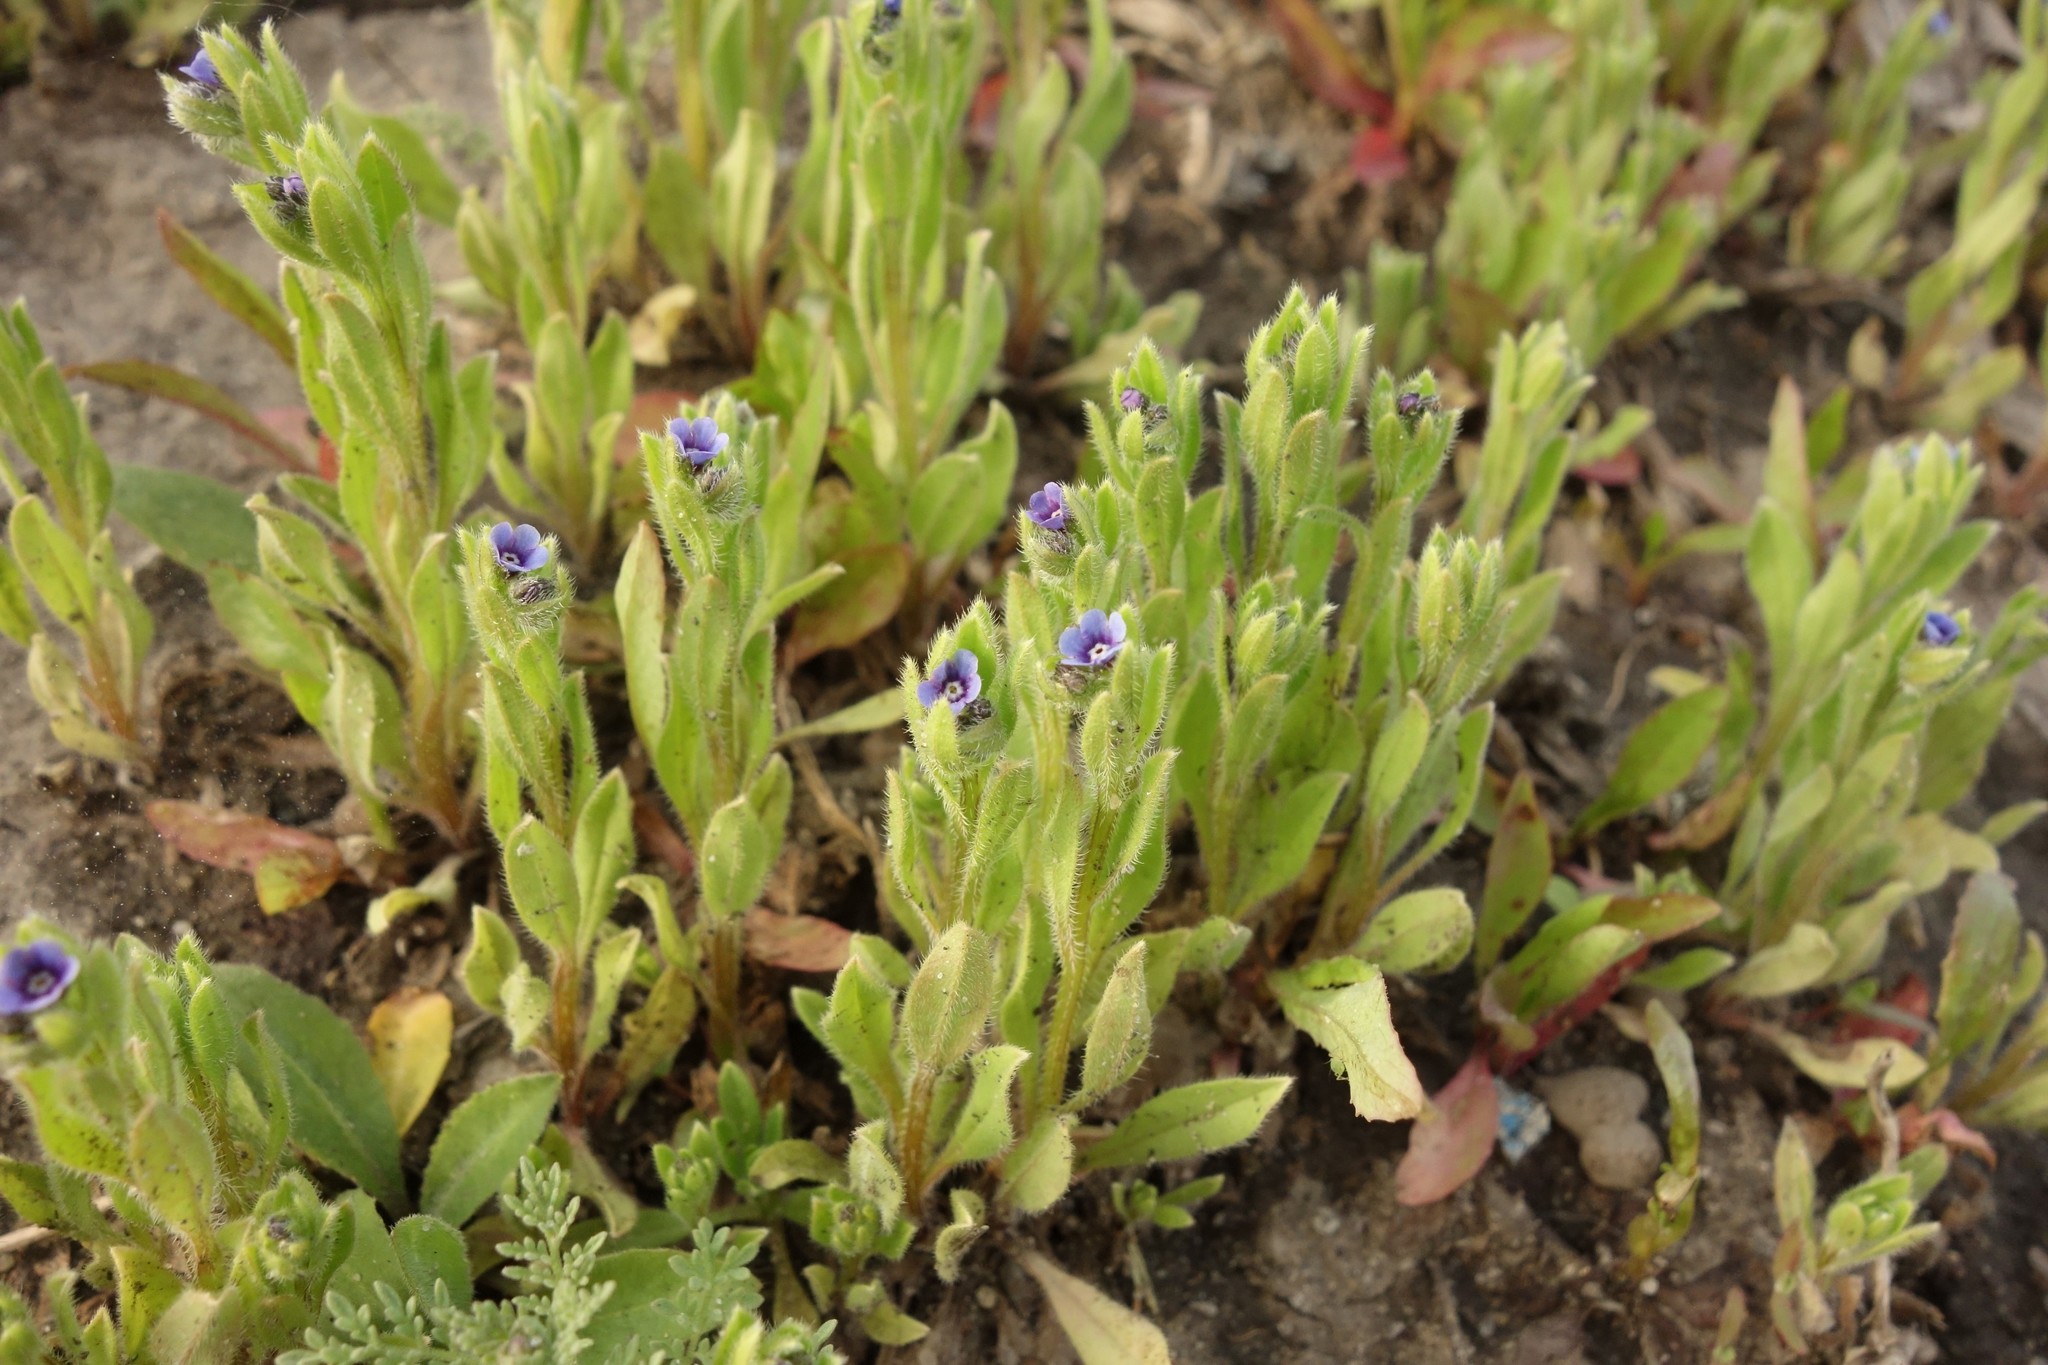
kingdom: Plantae
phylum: Tracheophyta
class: Magnoliopsida
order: Boraginales
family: Boraginaceae
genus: Asperugo
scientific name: Asperugo procumbens
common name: Madwort
